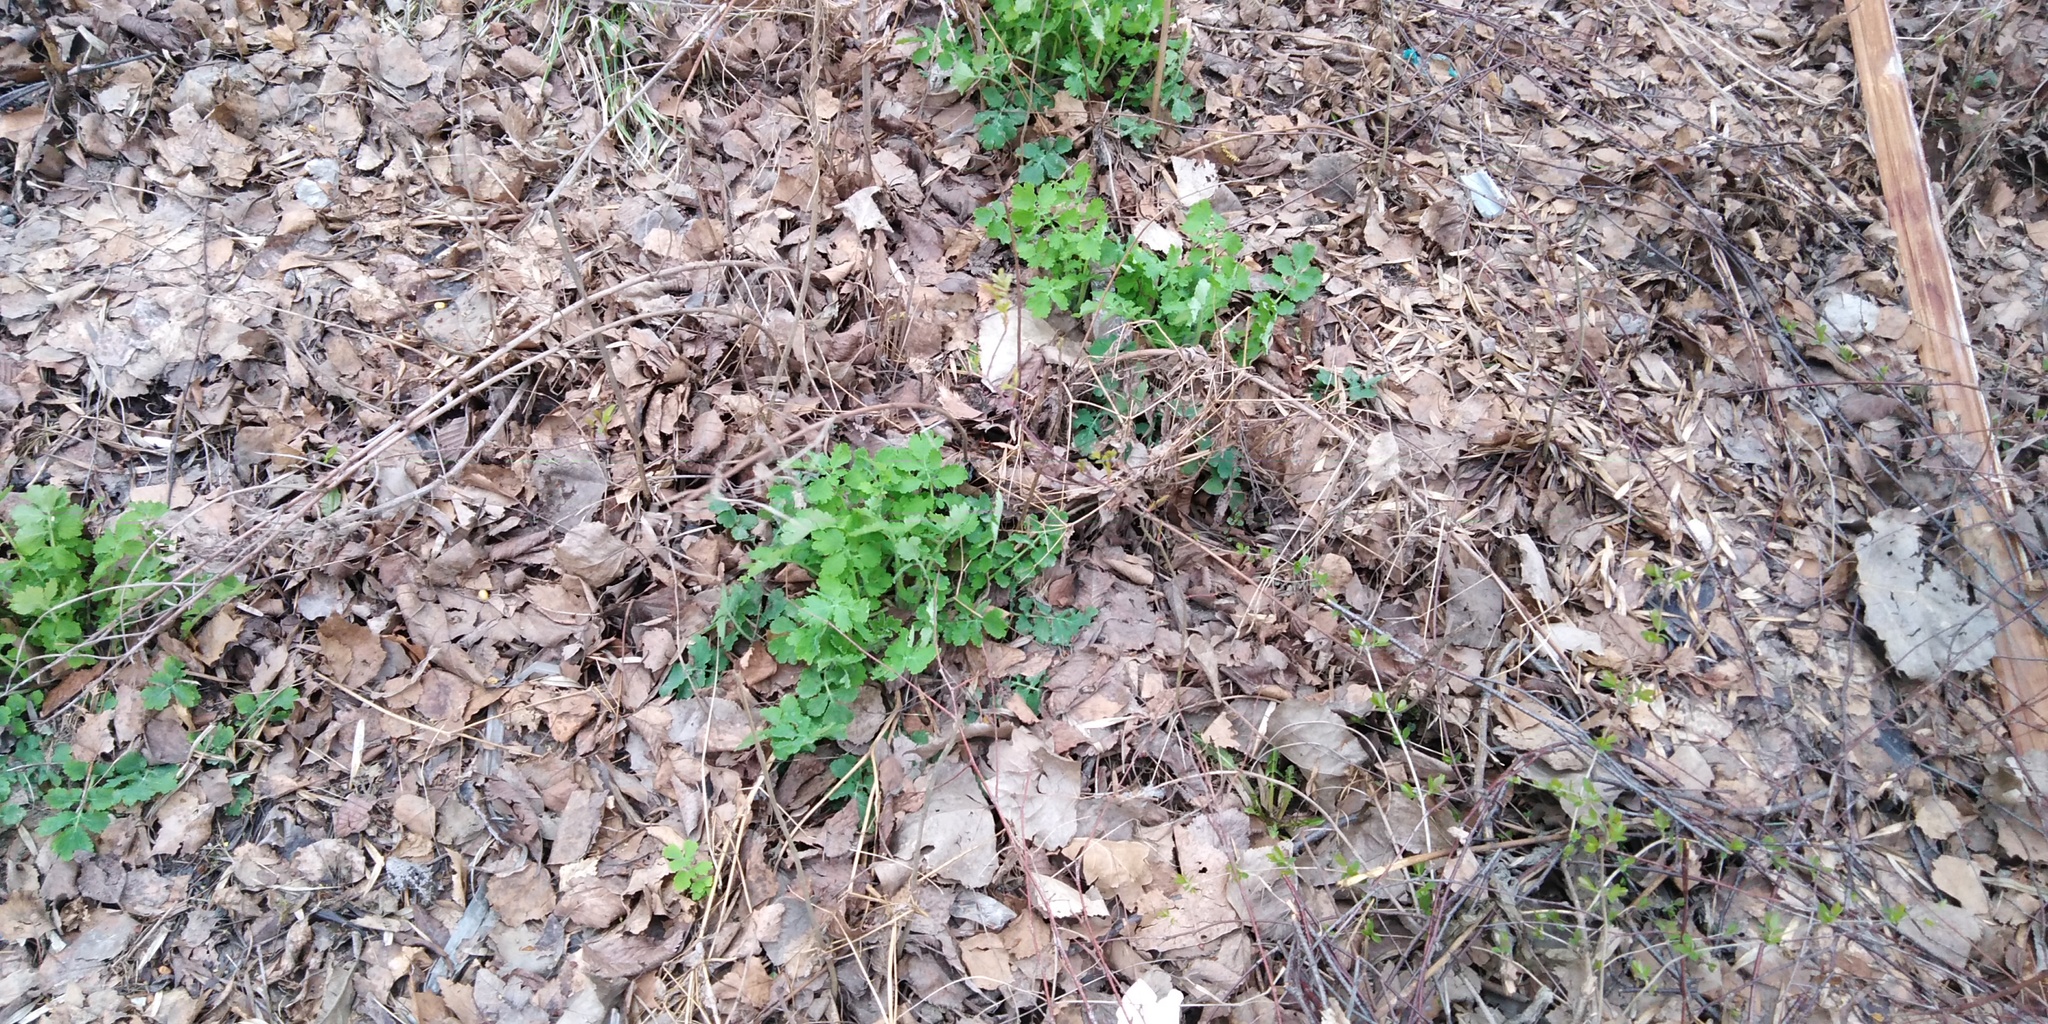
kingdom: Plantae
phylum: Tracheophyta
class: Magnoliopsida
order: Ranunculales
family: Papaveraceae
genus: Chelidonium
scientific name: Chelidonium majus
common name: Greater celandine
